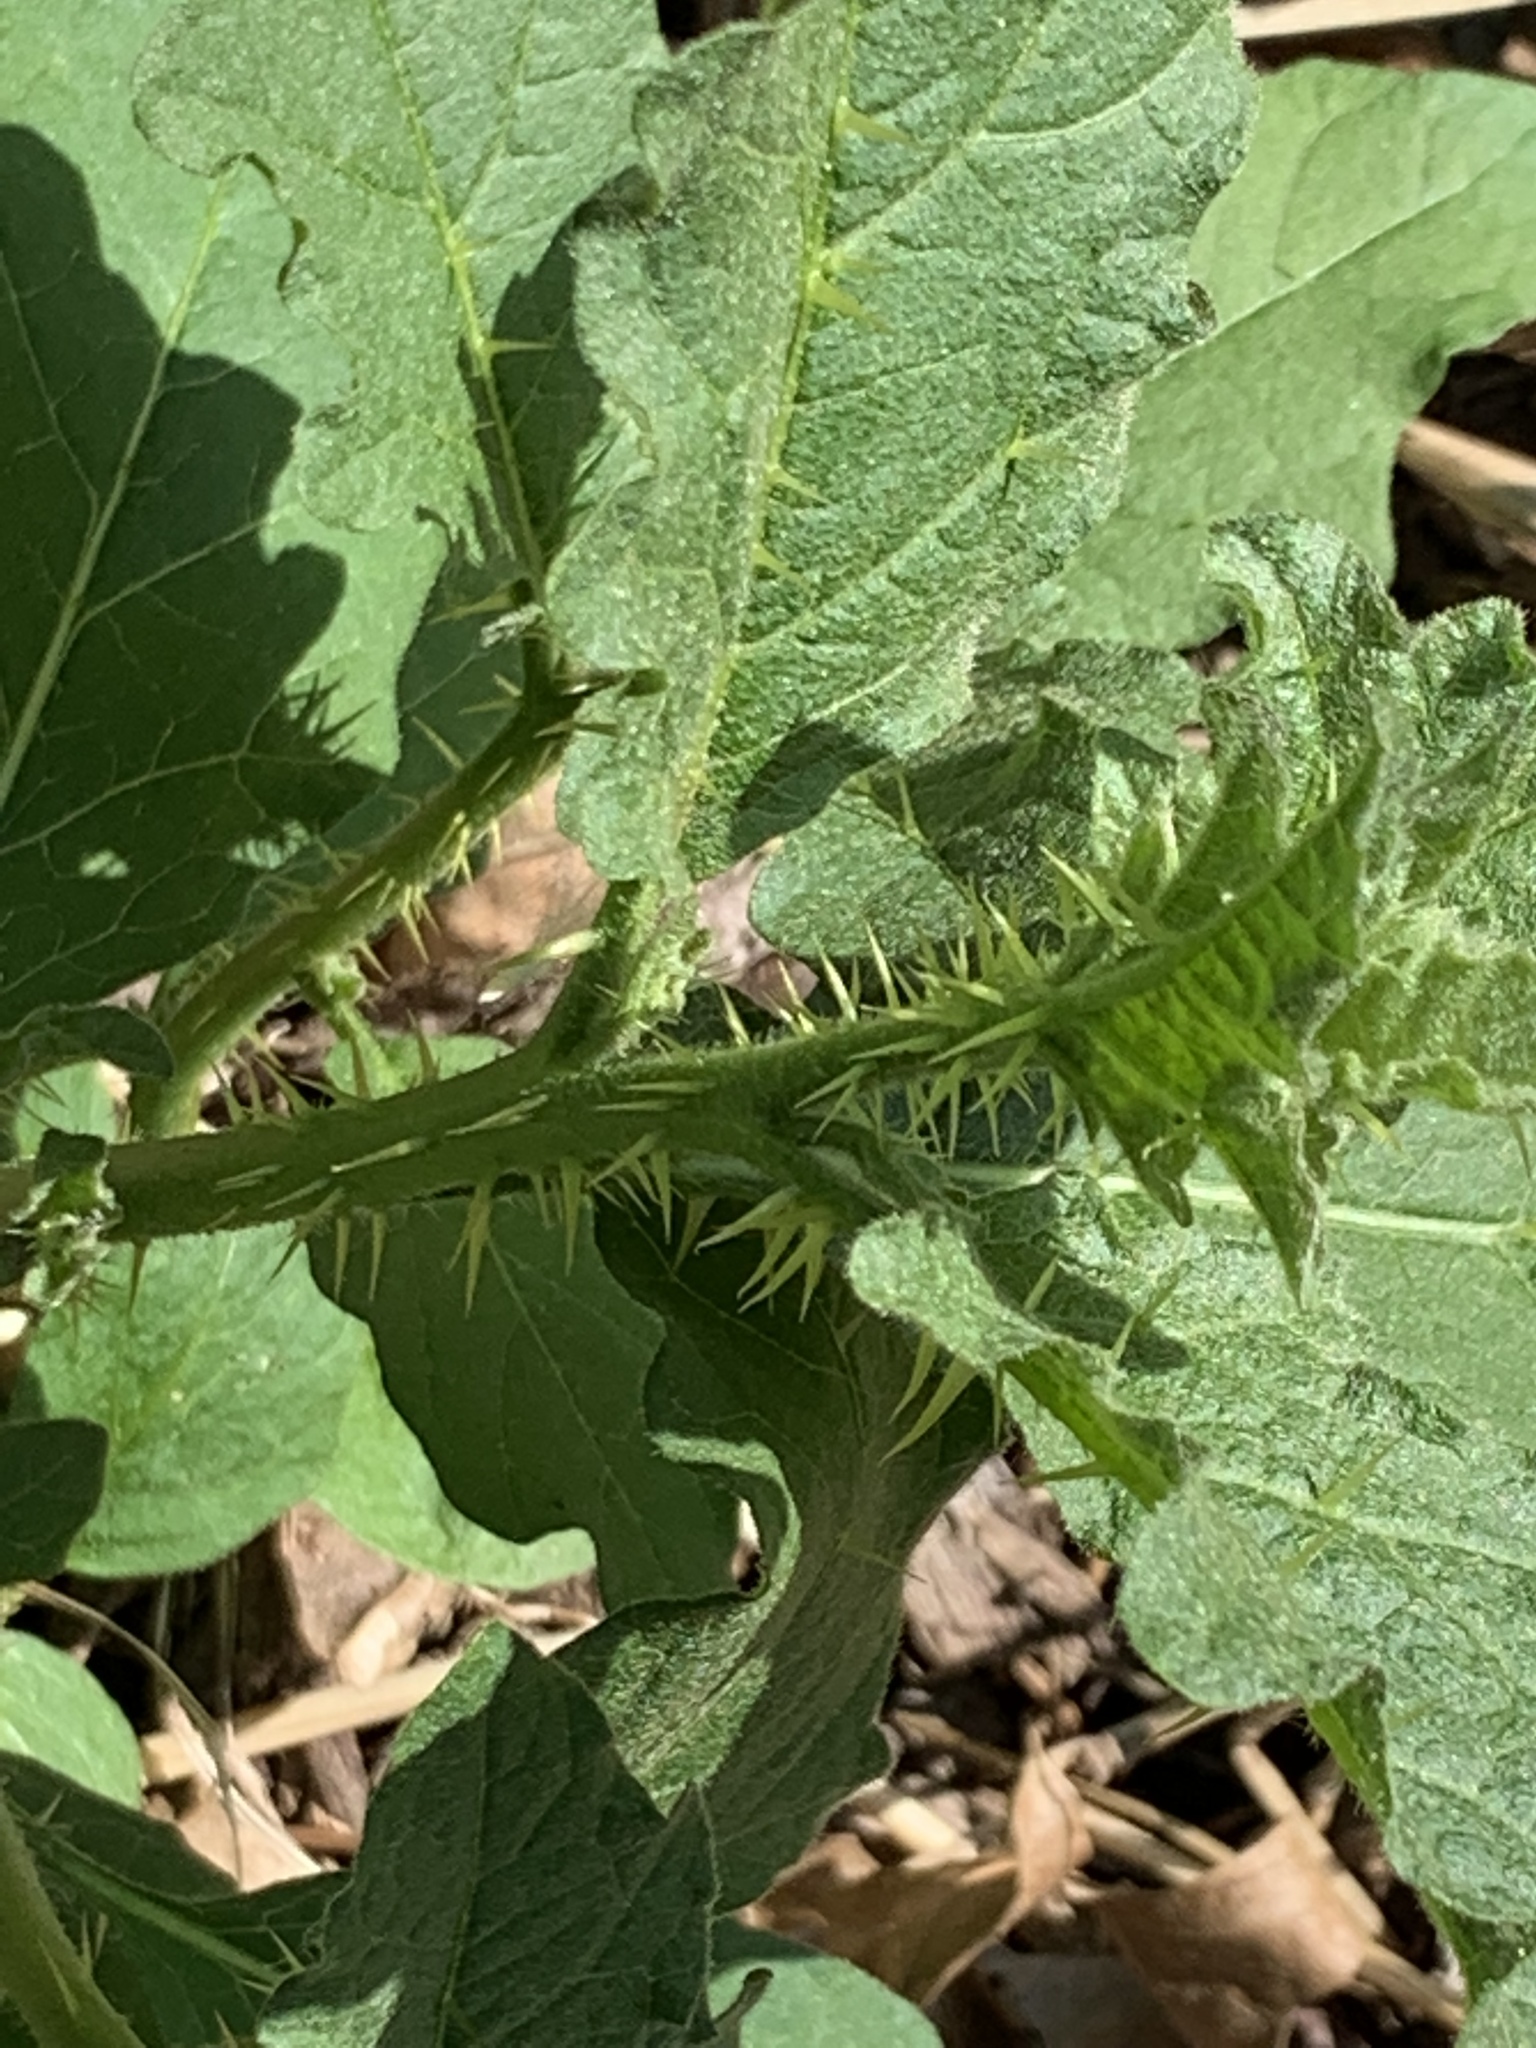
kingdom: Plantae
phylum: Tracheophyta
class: Magnoliopsida
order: Solanales
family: Solanaceae
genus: Solanum
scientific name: Solanum carolinense
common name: Horse-nettle
